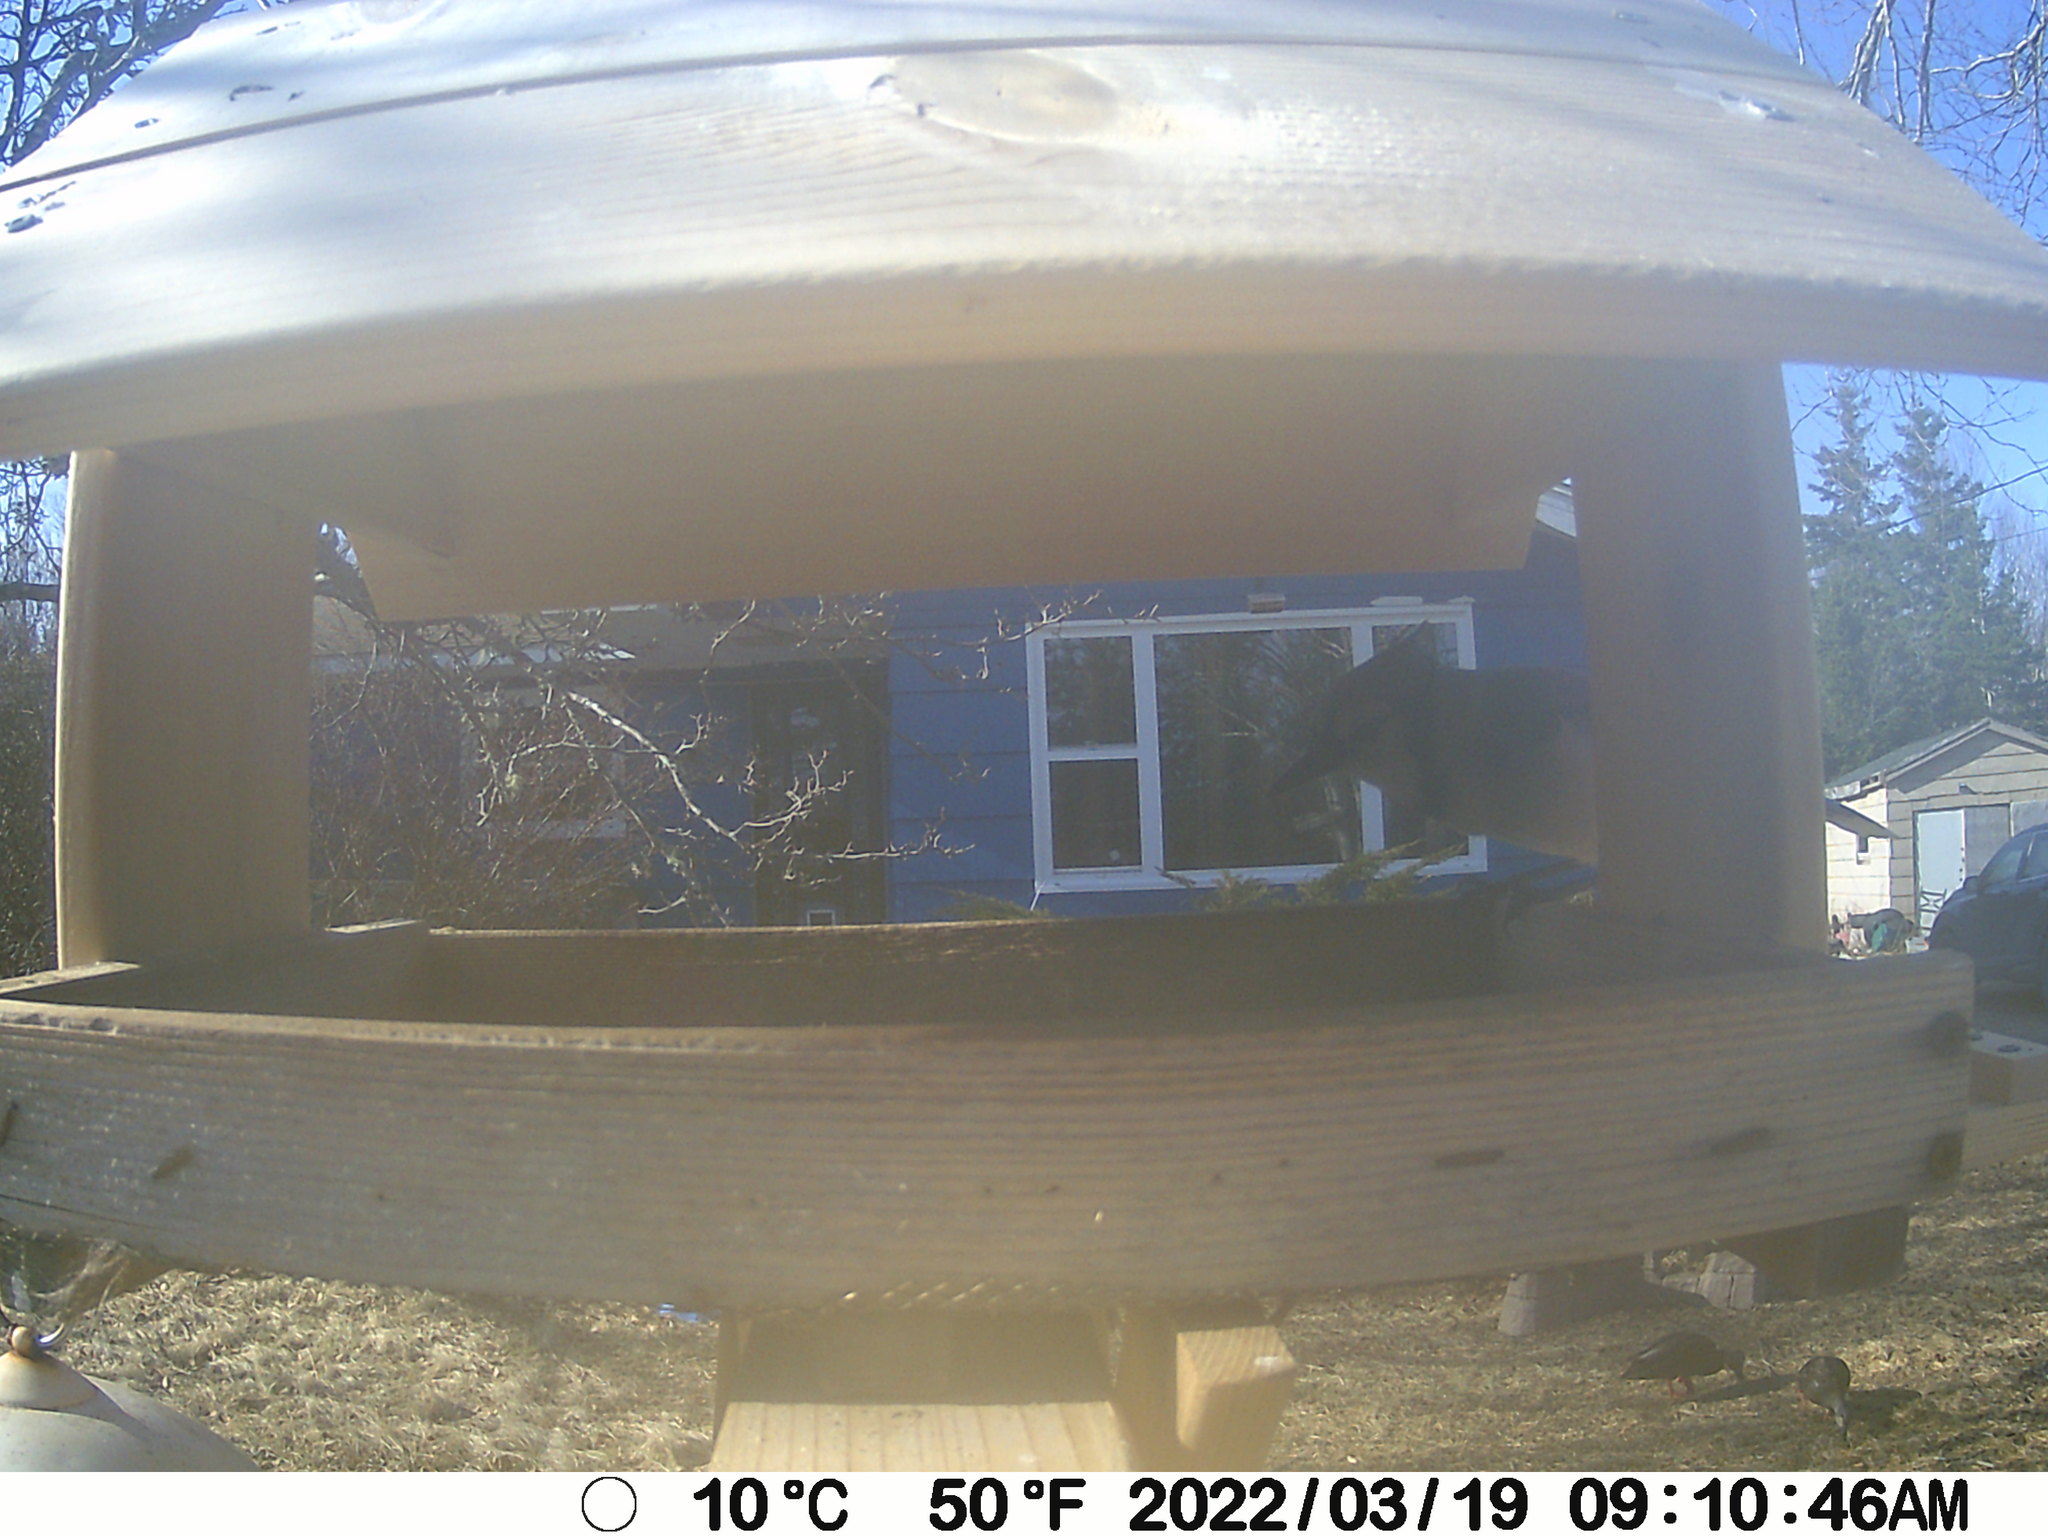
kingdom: Animalia
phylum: Chordata
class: Aves
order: Anseriformes
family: Anatidae
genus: Anas
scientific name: Anas rubripes
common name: American black duck
